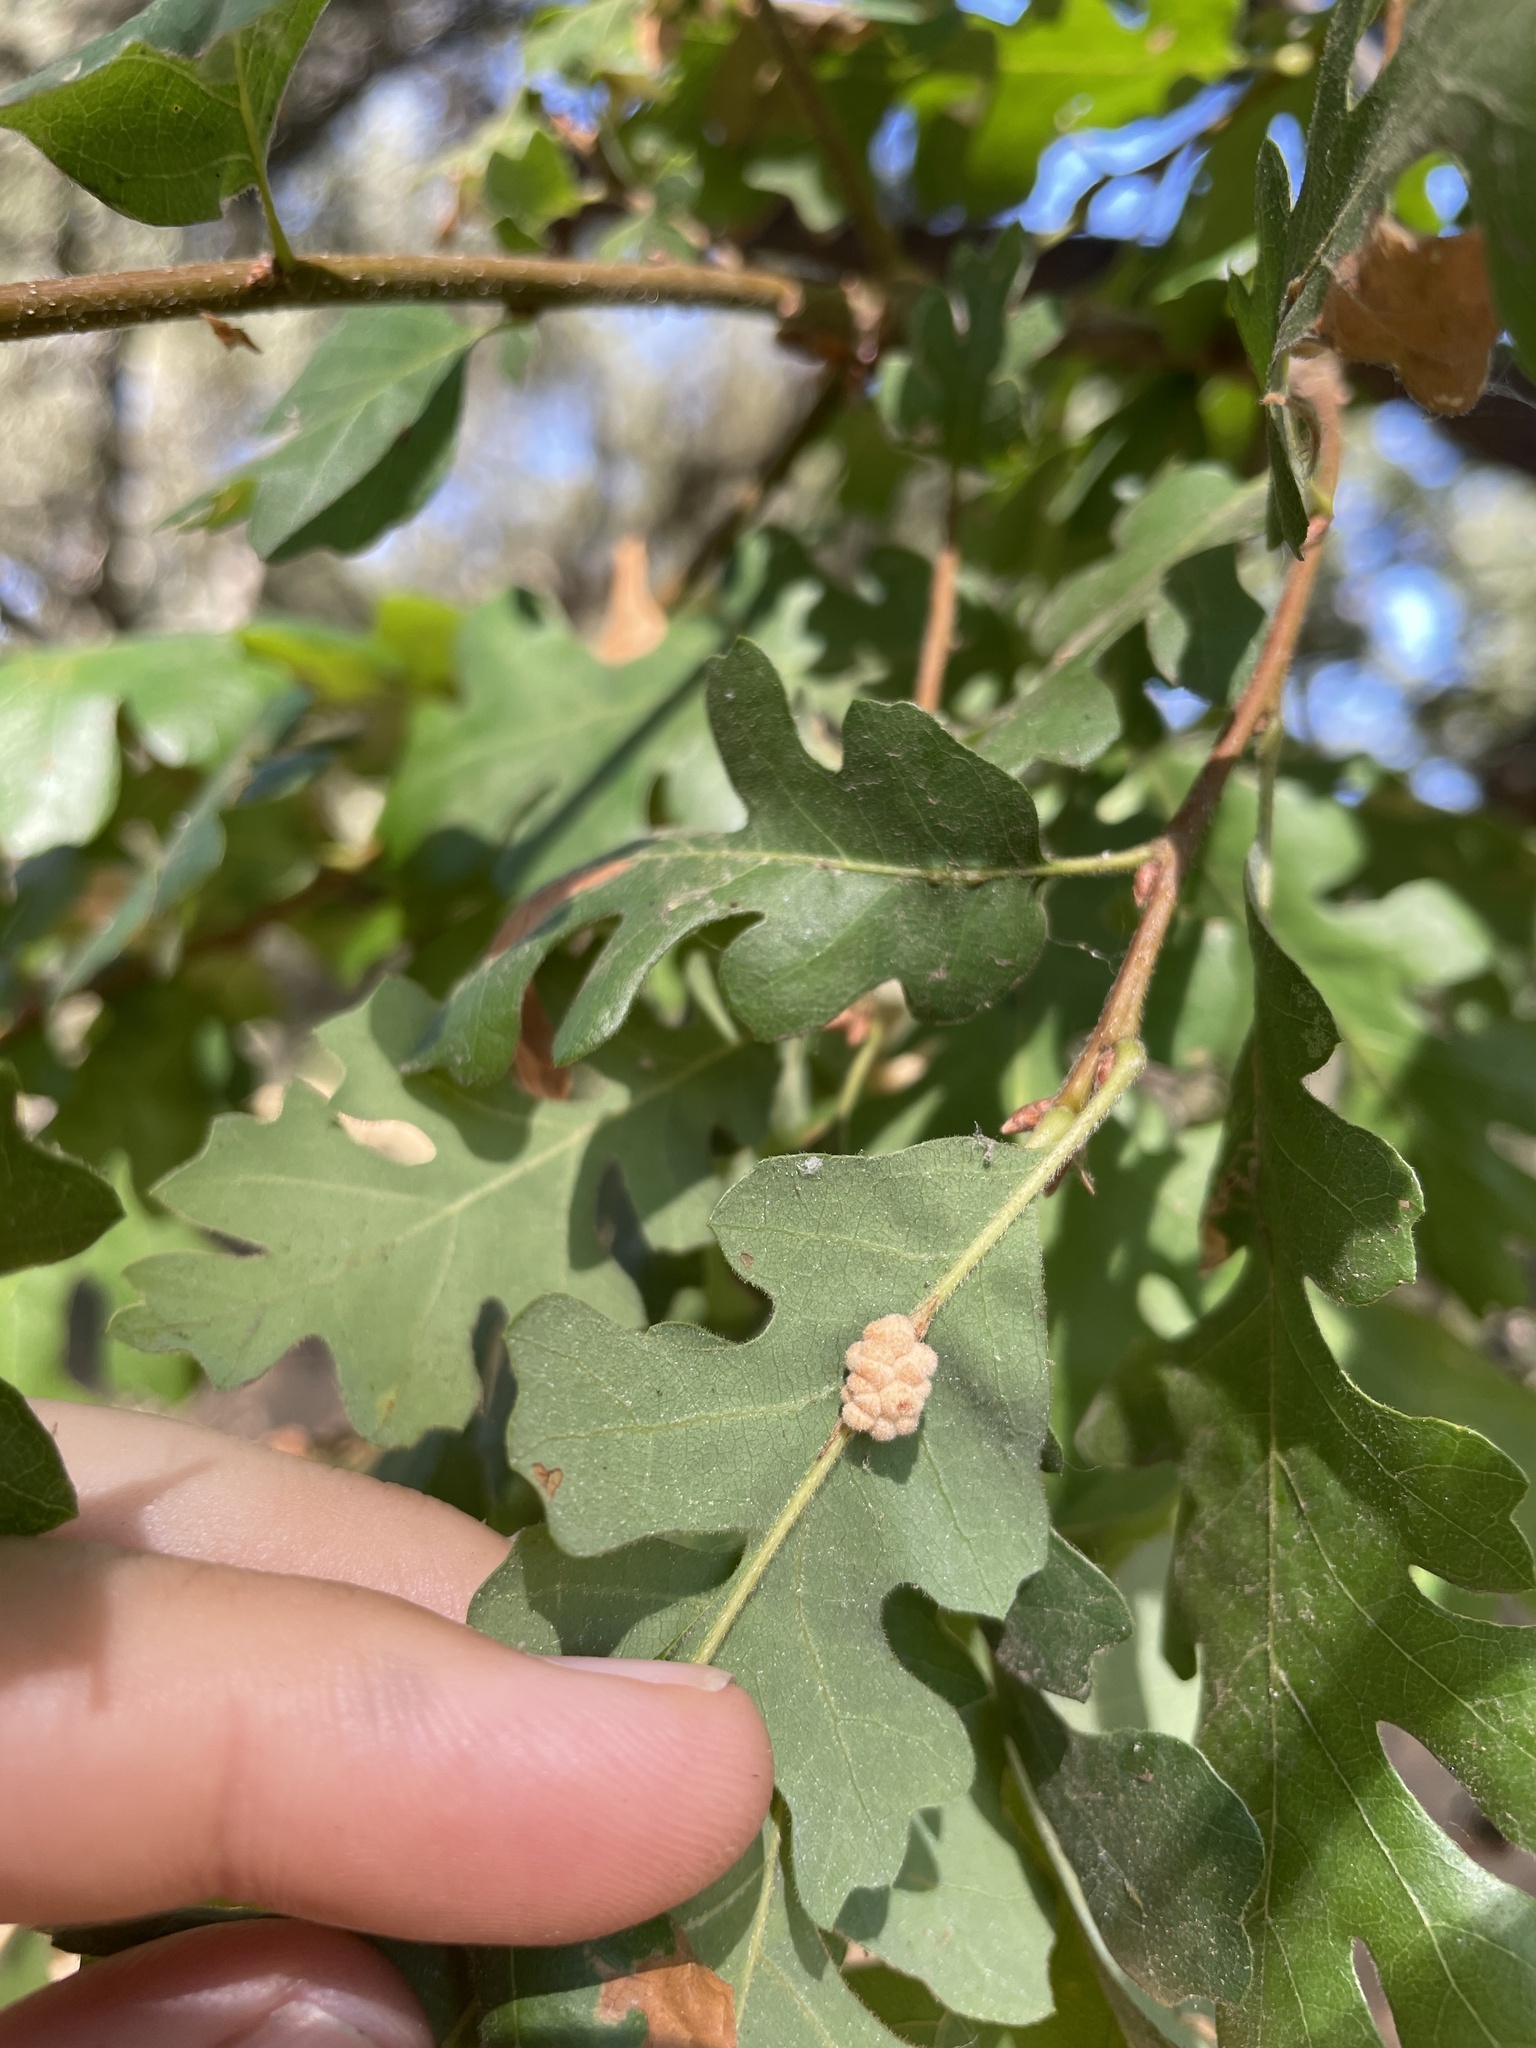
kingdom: Animalia
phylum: Arthropoda
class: Insecta
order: Hymenoptera
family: Cynipidae
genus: Andricus
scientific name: Andricus
